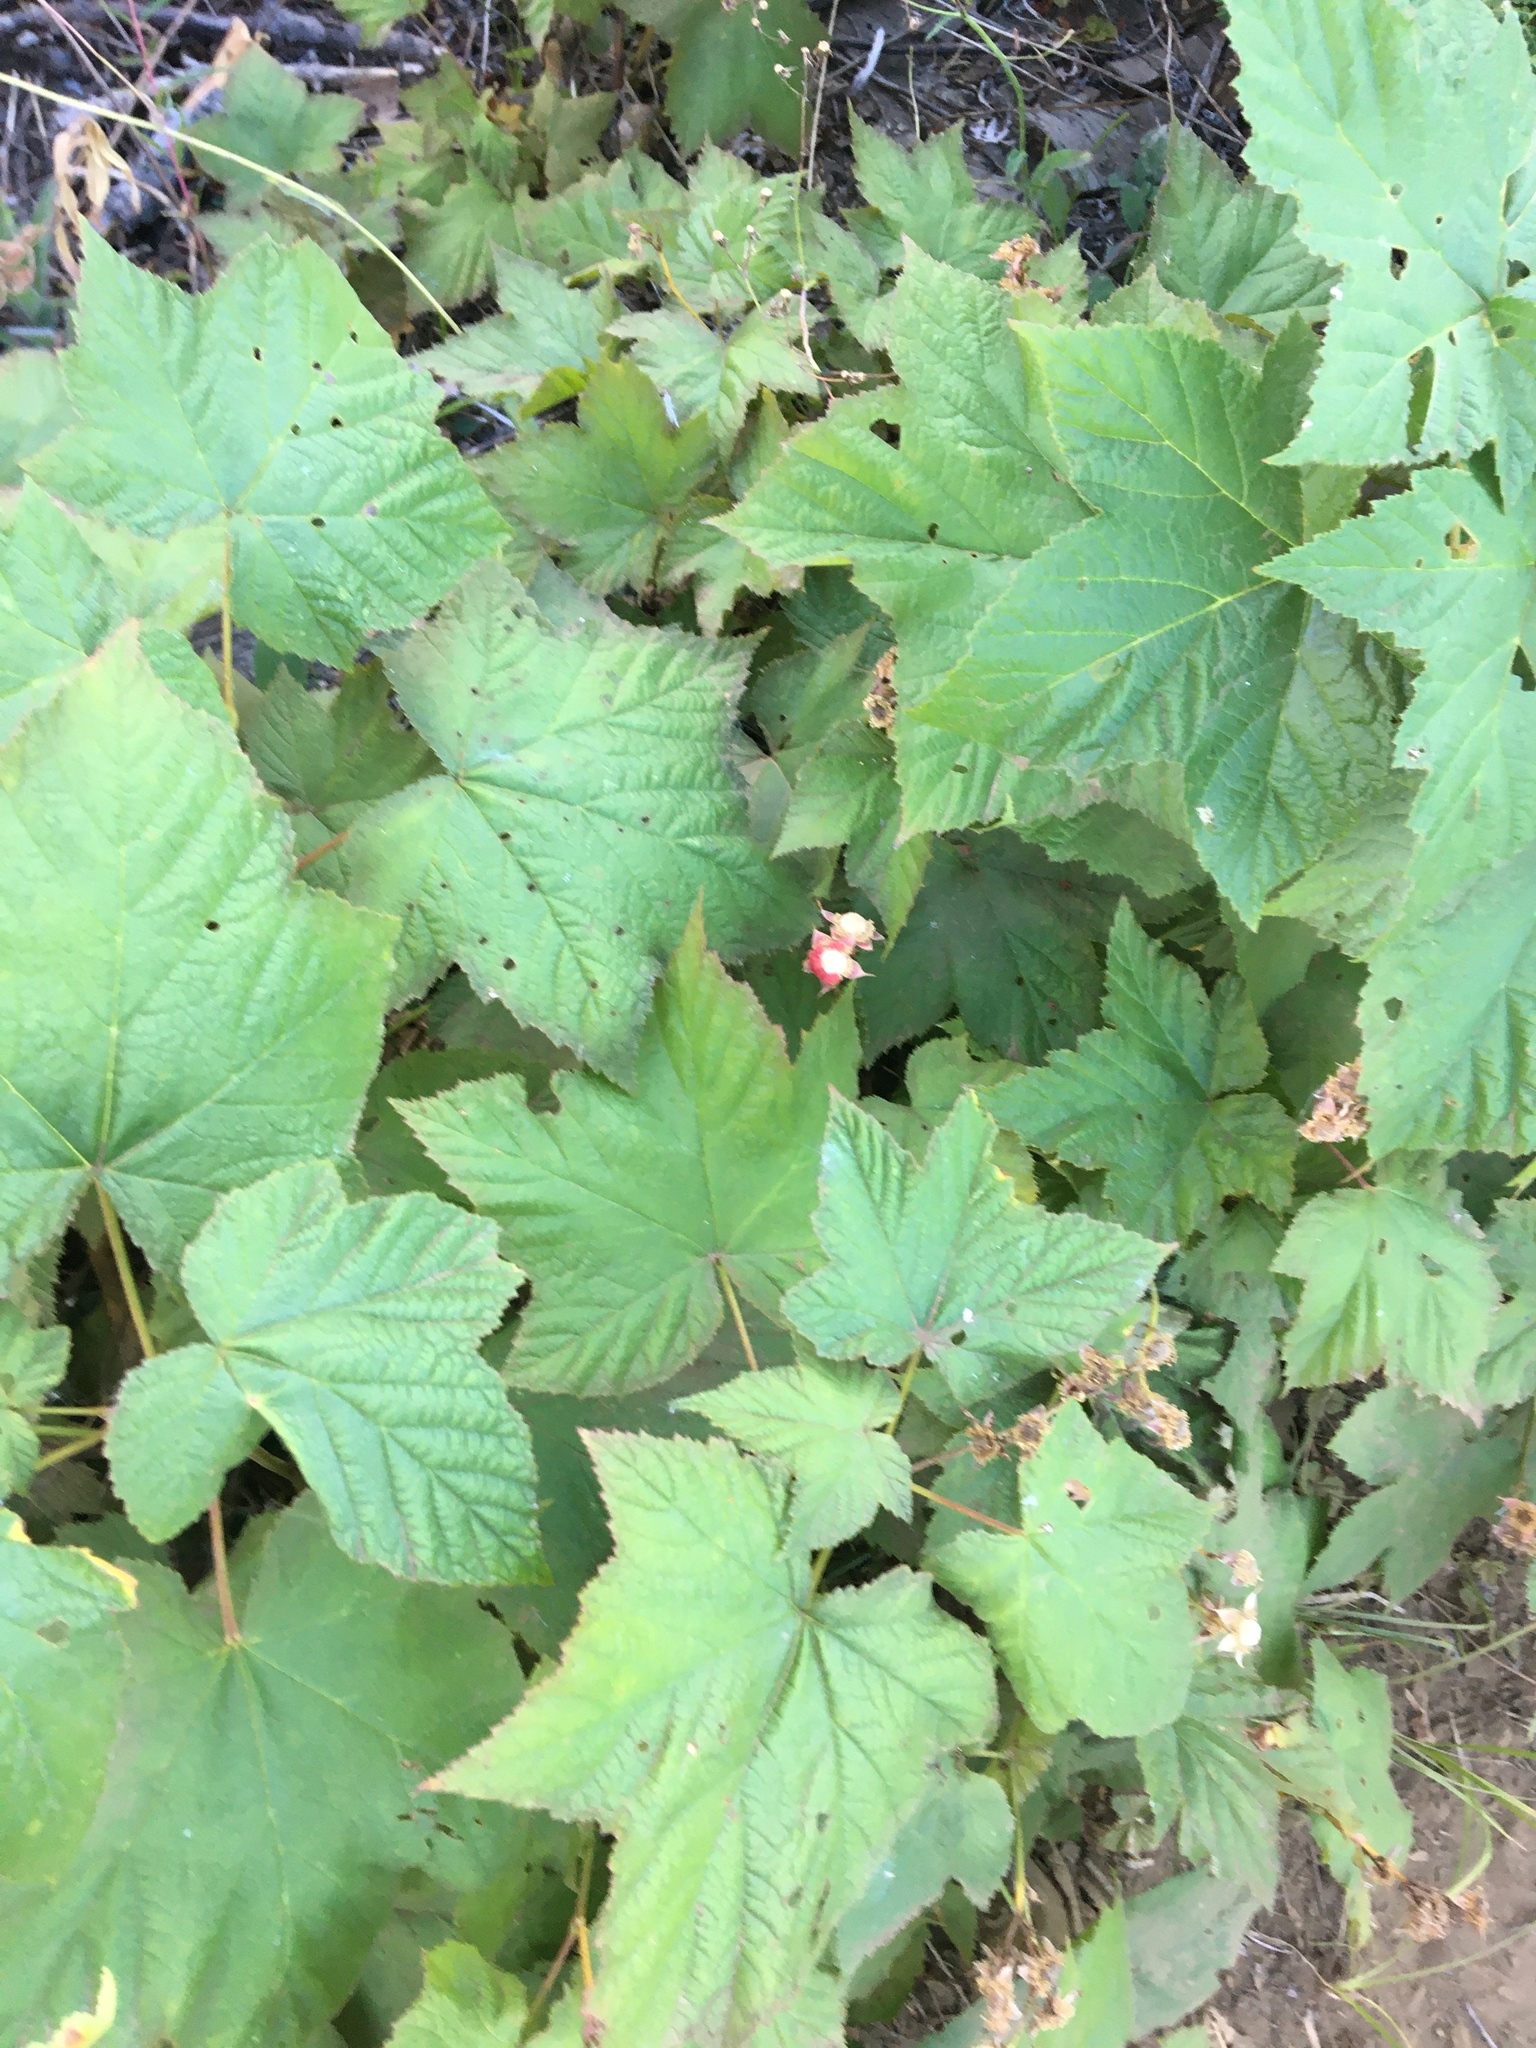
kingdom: Plantae
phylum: Tracheophyta
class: Magnoliopsida
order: Rosales
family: Rosaceae
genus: Rubus
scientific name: Rubus parviflorus
